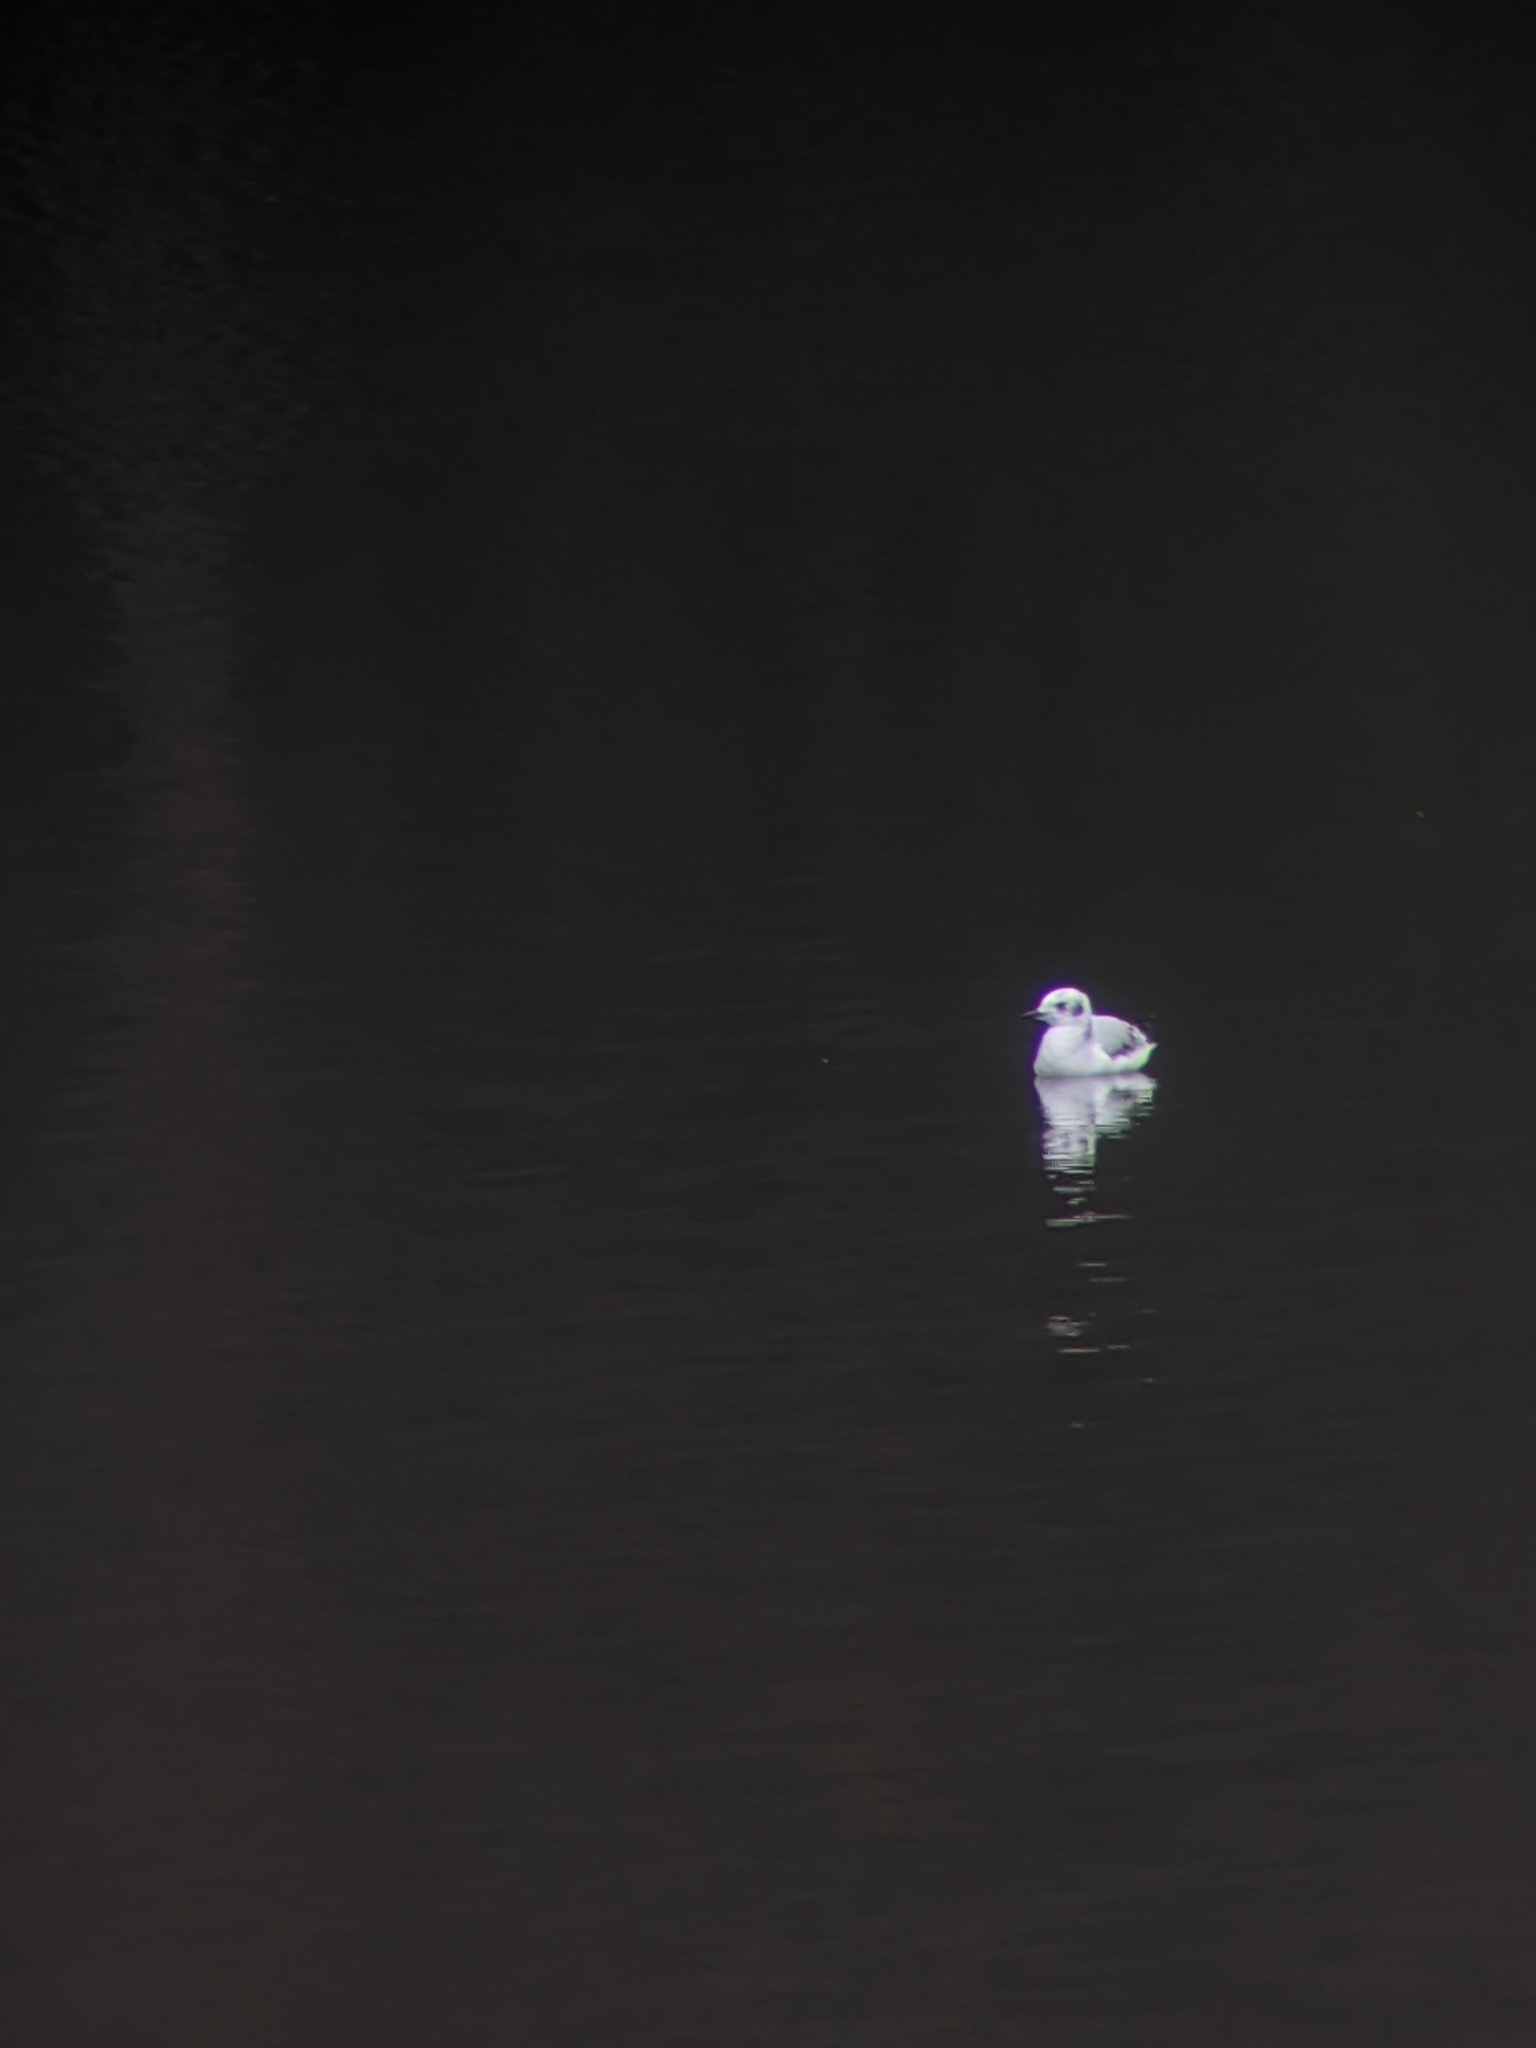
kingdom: Animalia
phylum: Chordata
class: Aves
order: Charadriiformes
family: Laridae
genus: Chroicocephalus
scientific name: Chroicocephalus philadelphia
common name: Bonaparte's gull
